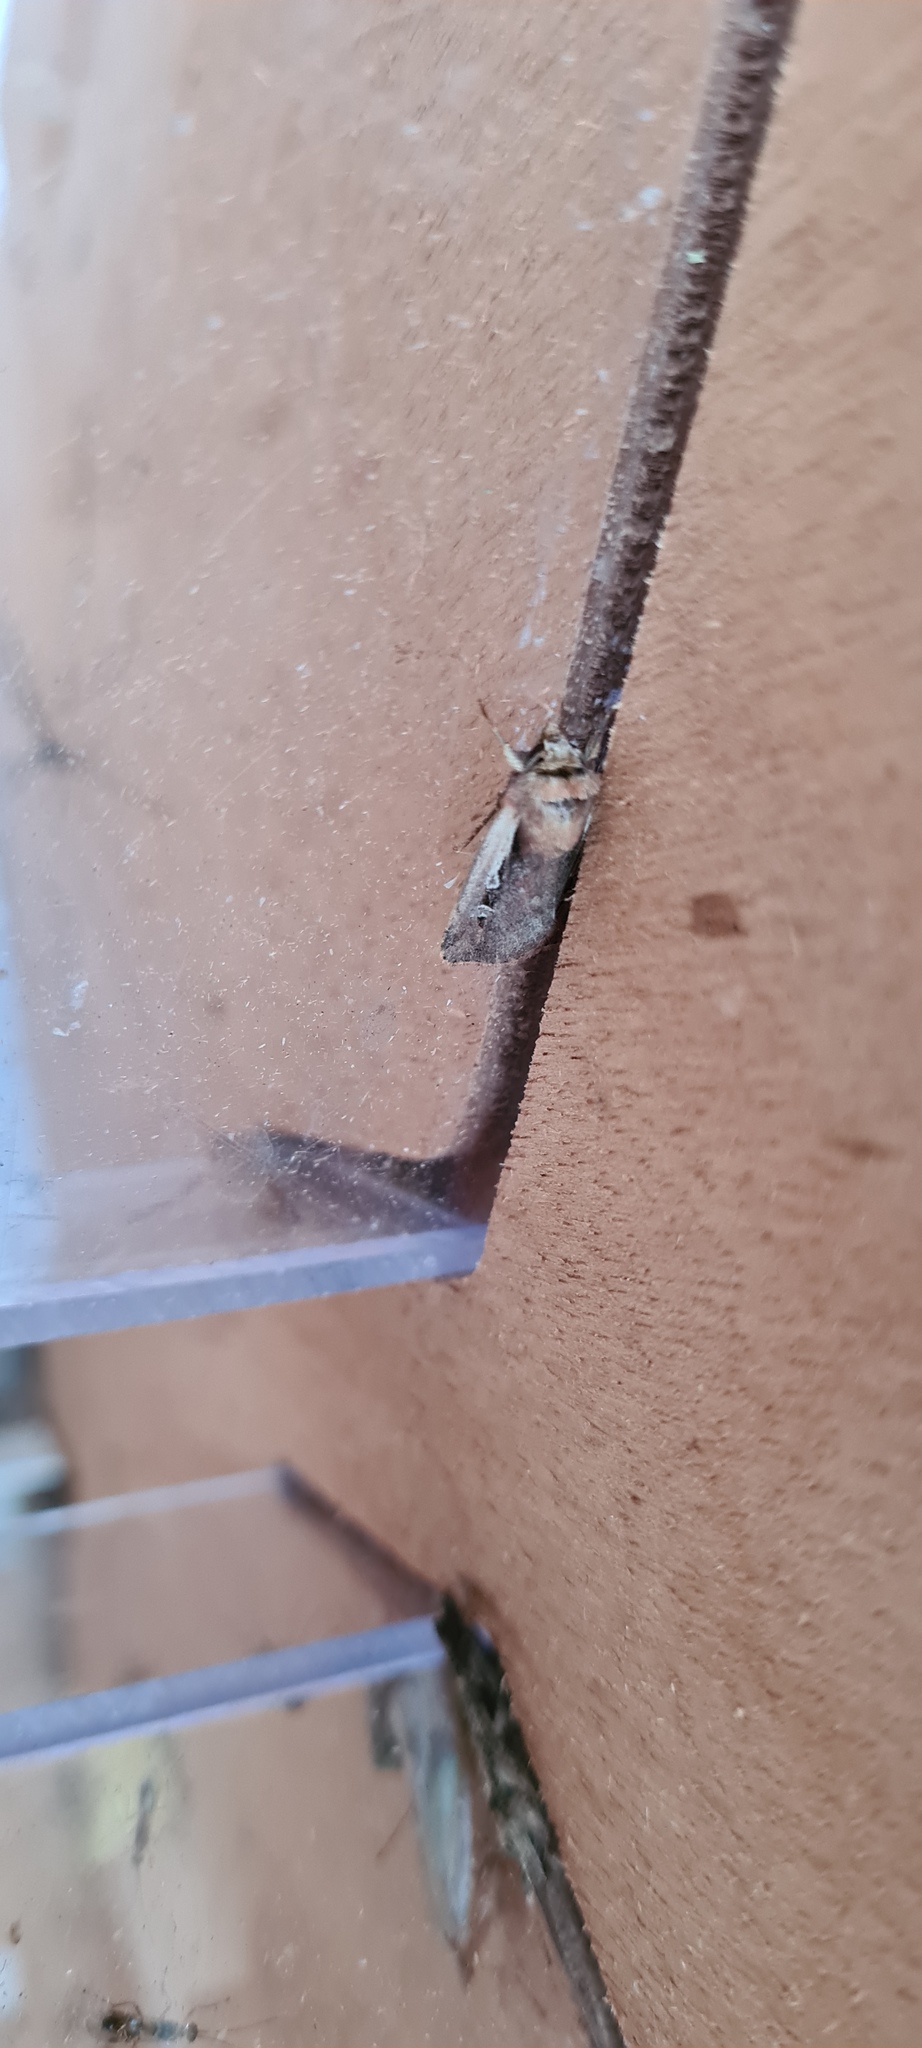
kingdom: Animalia
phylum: Arthropoda
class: Insecta
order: Lepidoptera
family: Noctuidae
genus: Ochropleura
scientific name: Ochropleura plecta
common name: Flame shoulder
